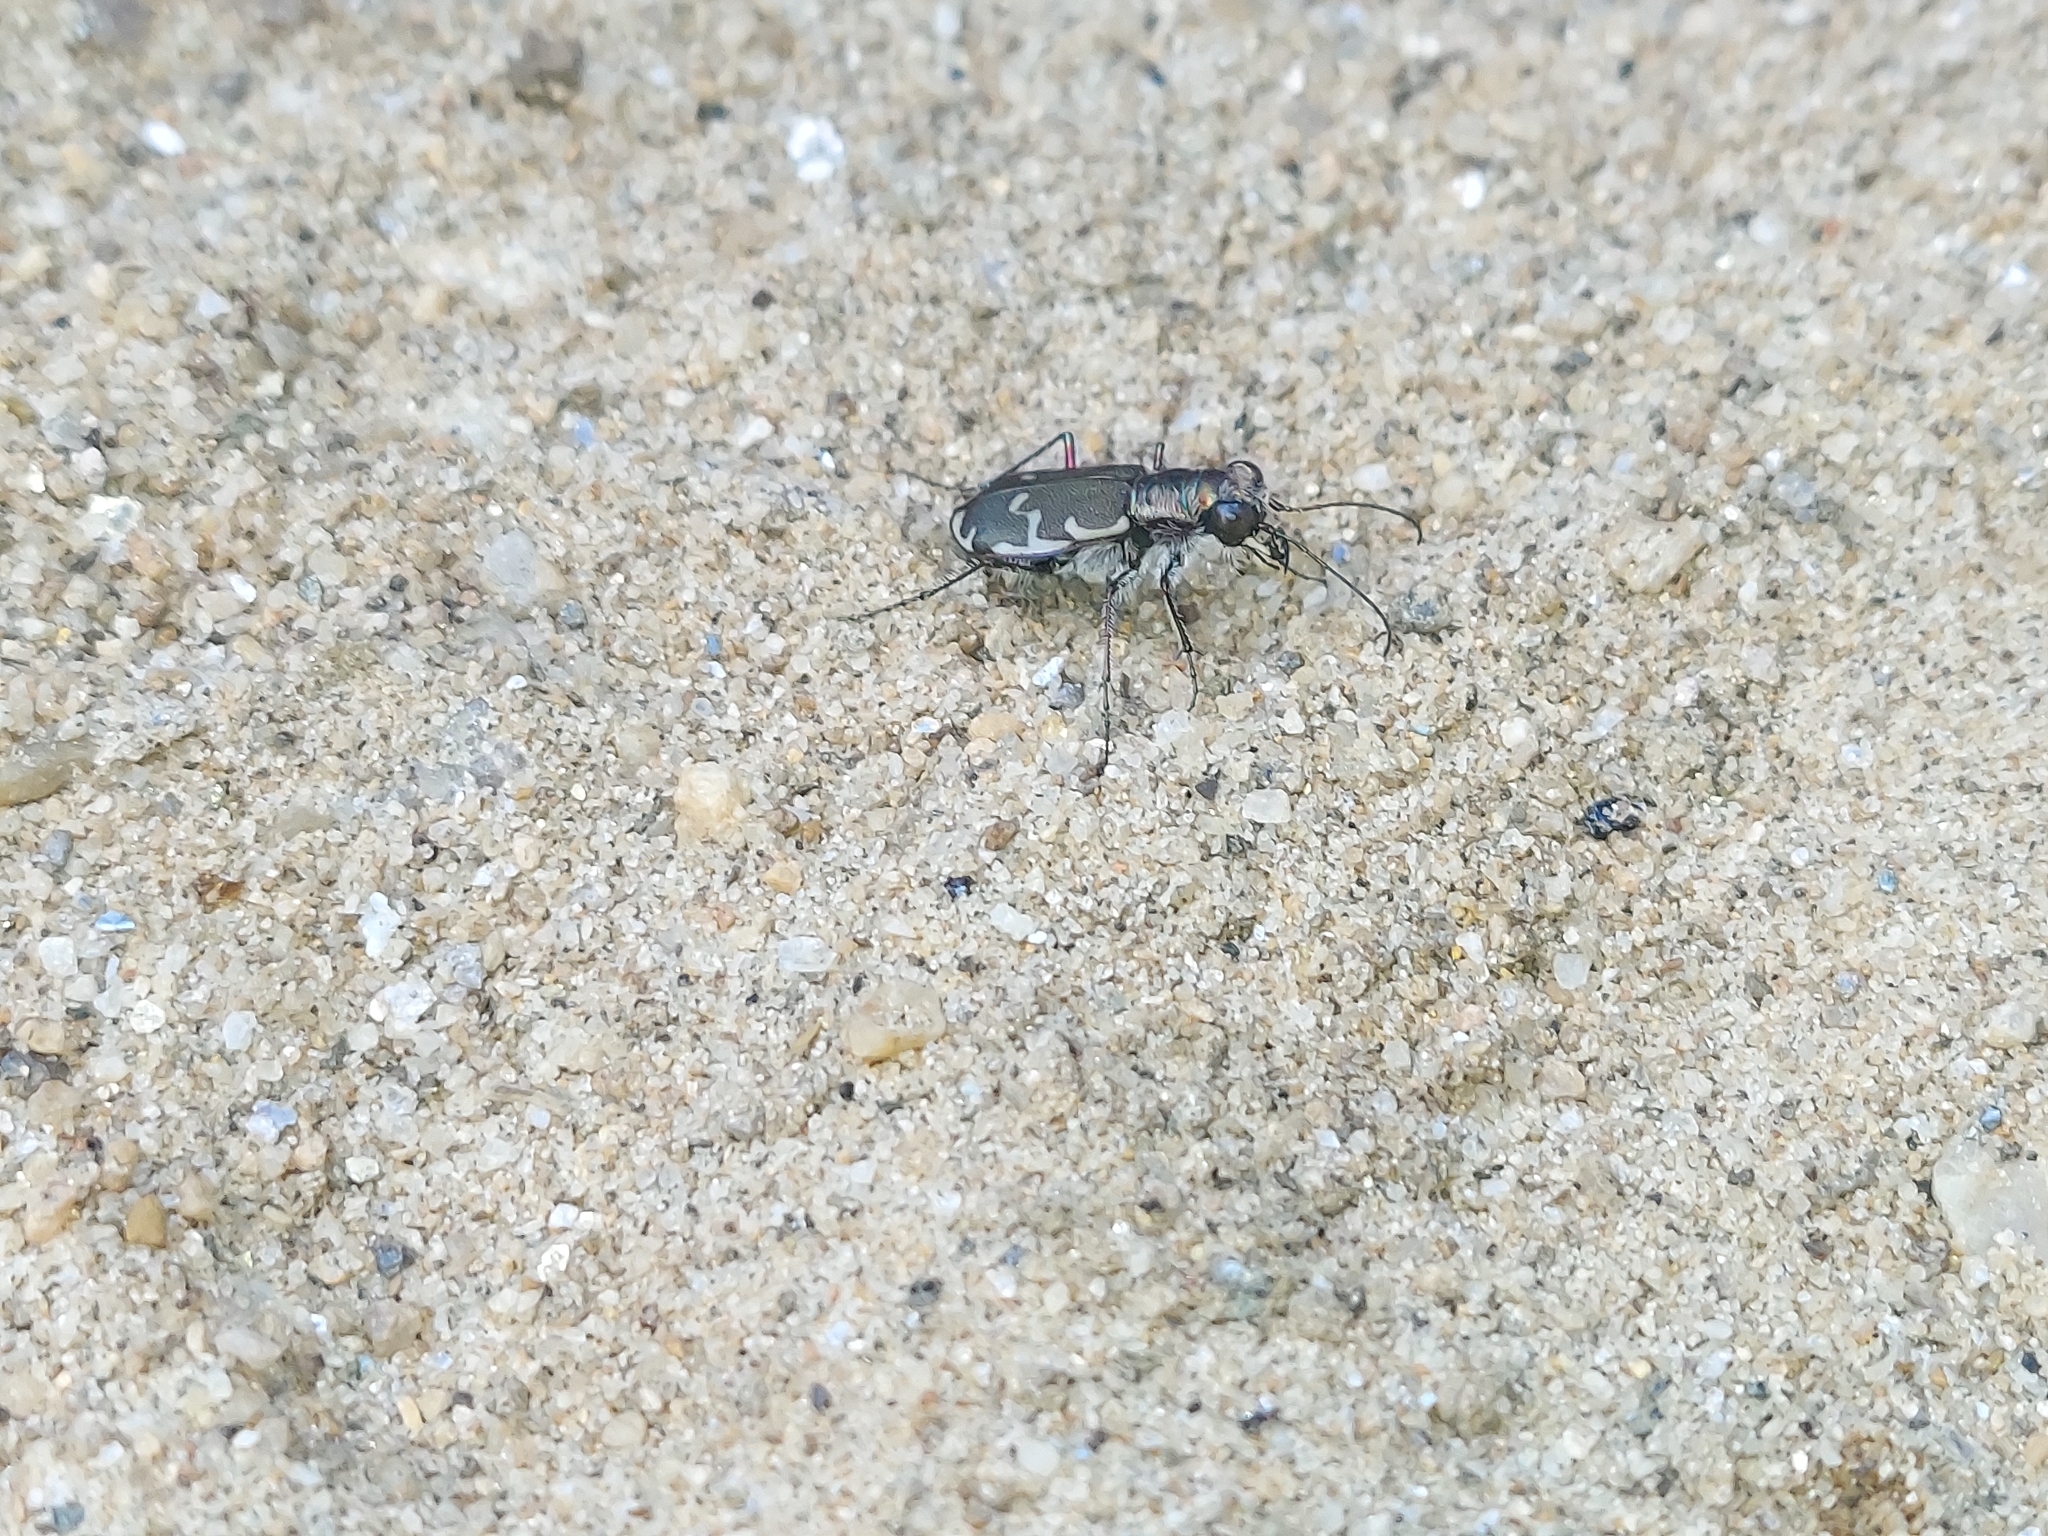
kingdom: Animalia
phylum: Arthropoda
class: Insecta
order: Coleoptera
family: Carabidae
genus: Cicindela
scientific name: Cicindela repanda
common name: Bronzed tiger beetle
